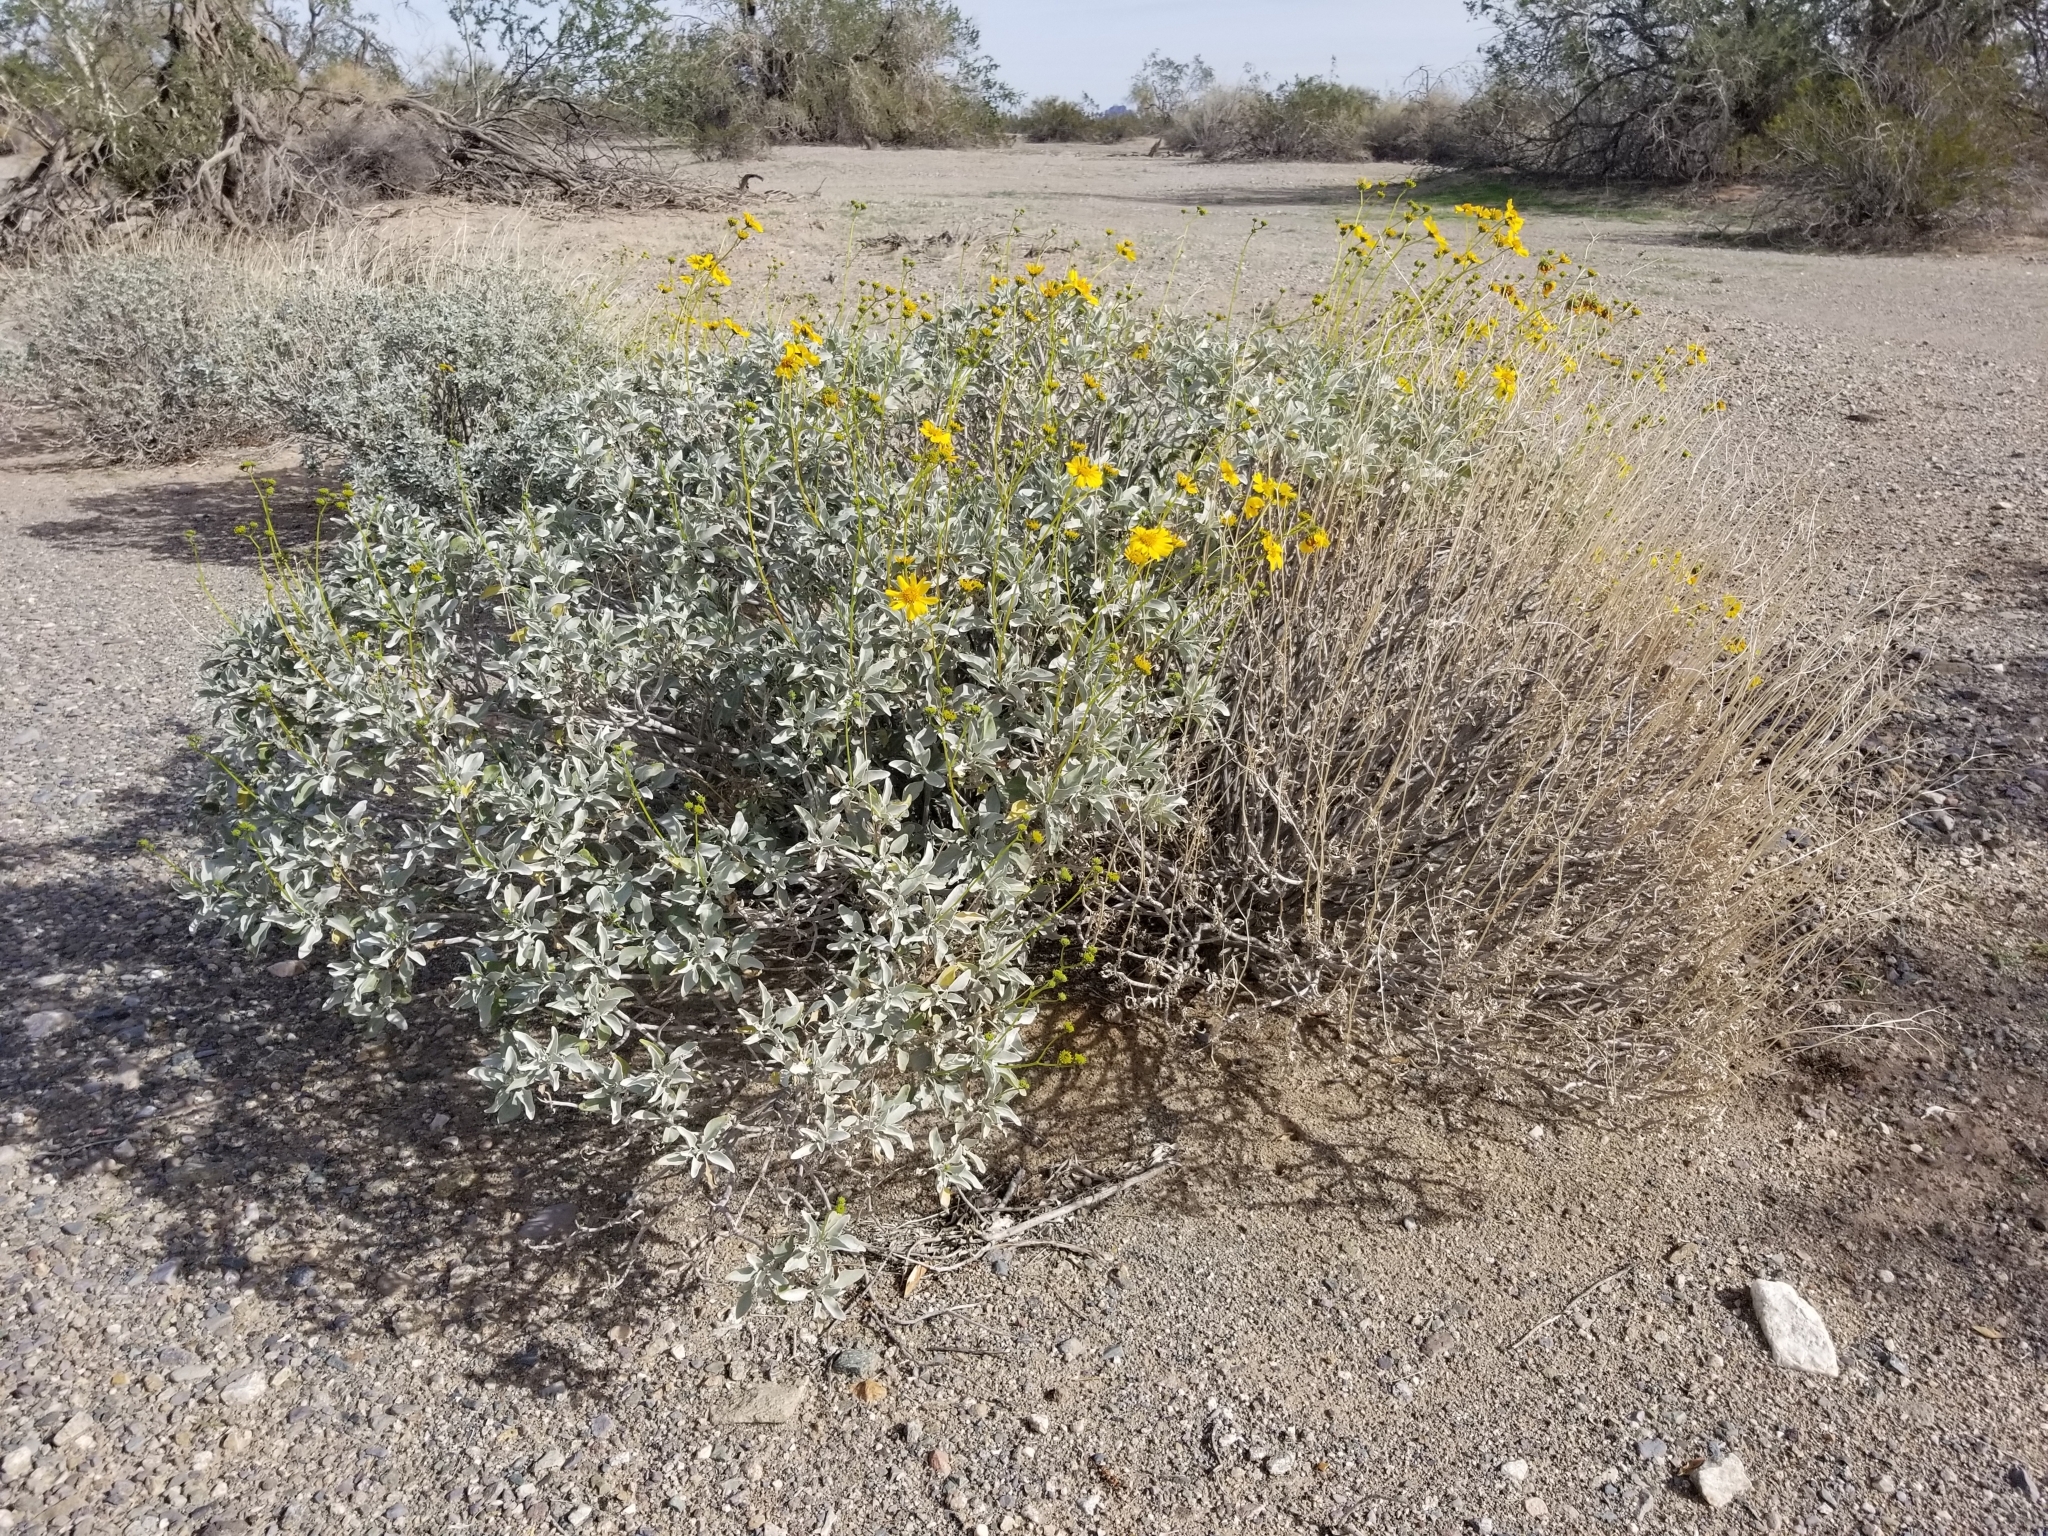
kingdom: Plantae
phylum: Tracheophyta
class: Magnoliopsida
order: Asterales
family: Asteraceae
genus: Encelia
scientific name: Encelia farinosa
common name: Brittlebush
